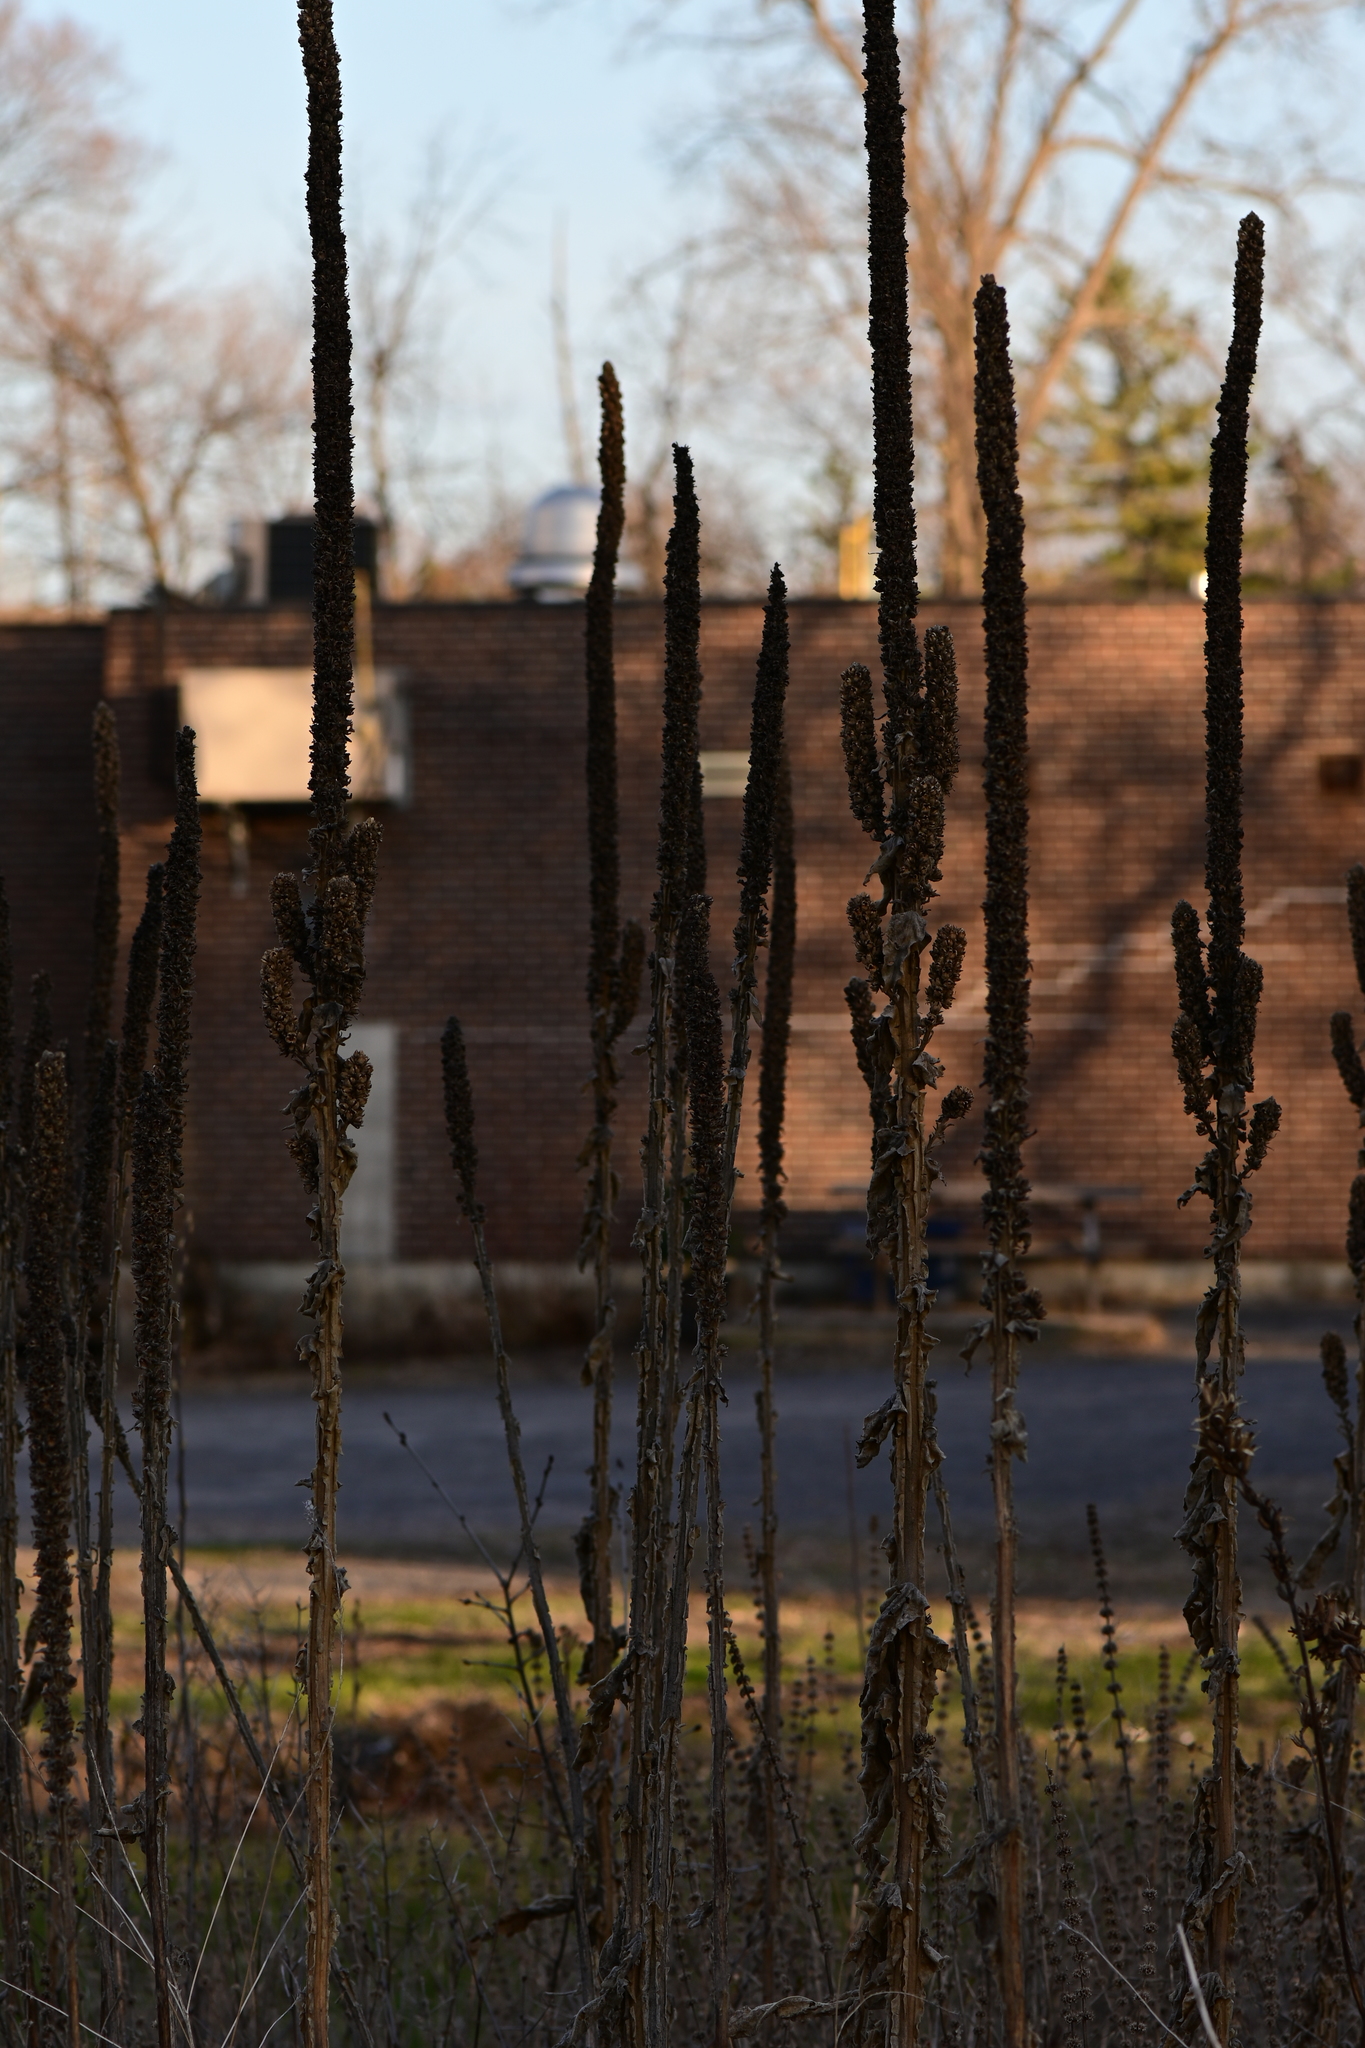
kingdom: Plantae
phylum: Tracheophyta
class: Magnoliopsida
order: Lamiales
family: Scrophulariaceae
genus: Verbascum
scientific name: Verbascum thapsus
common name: Common mullein
